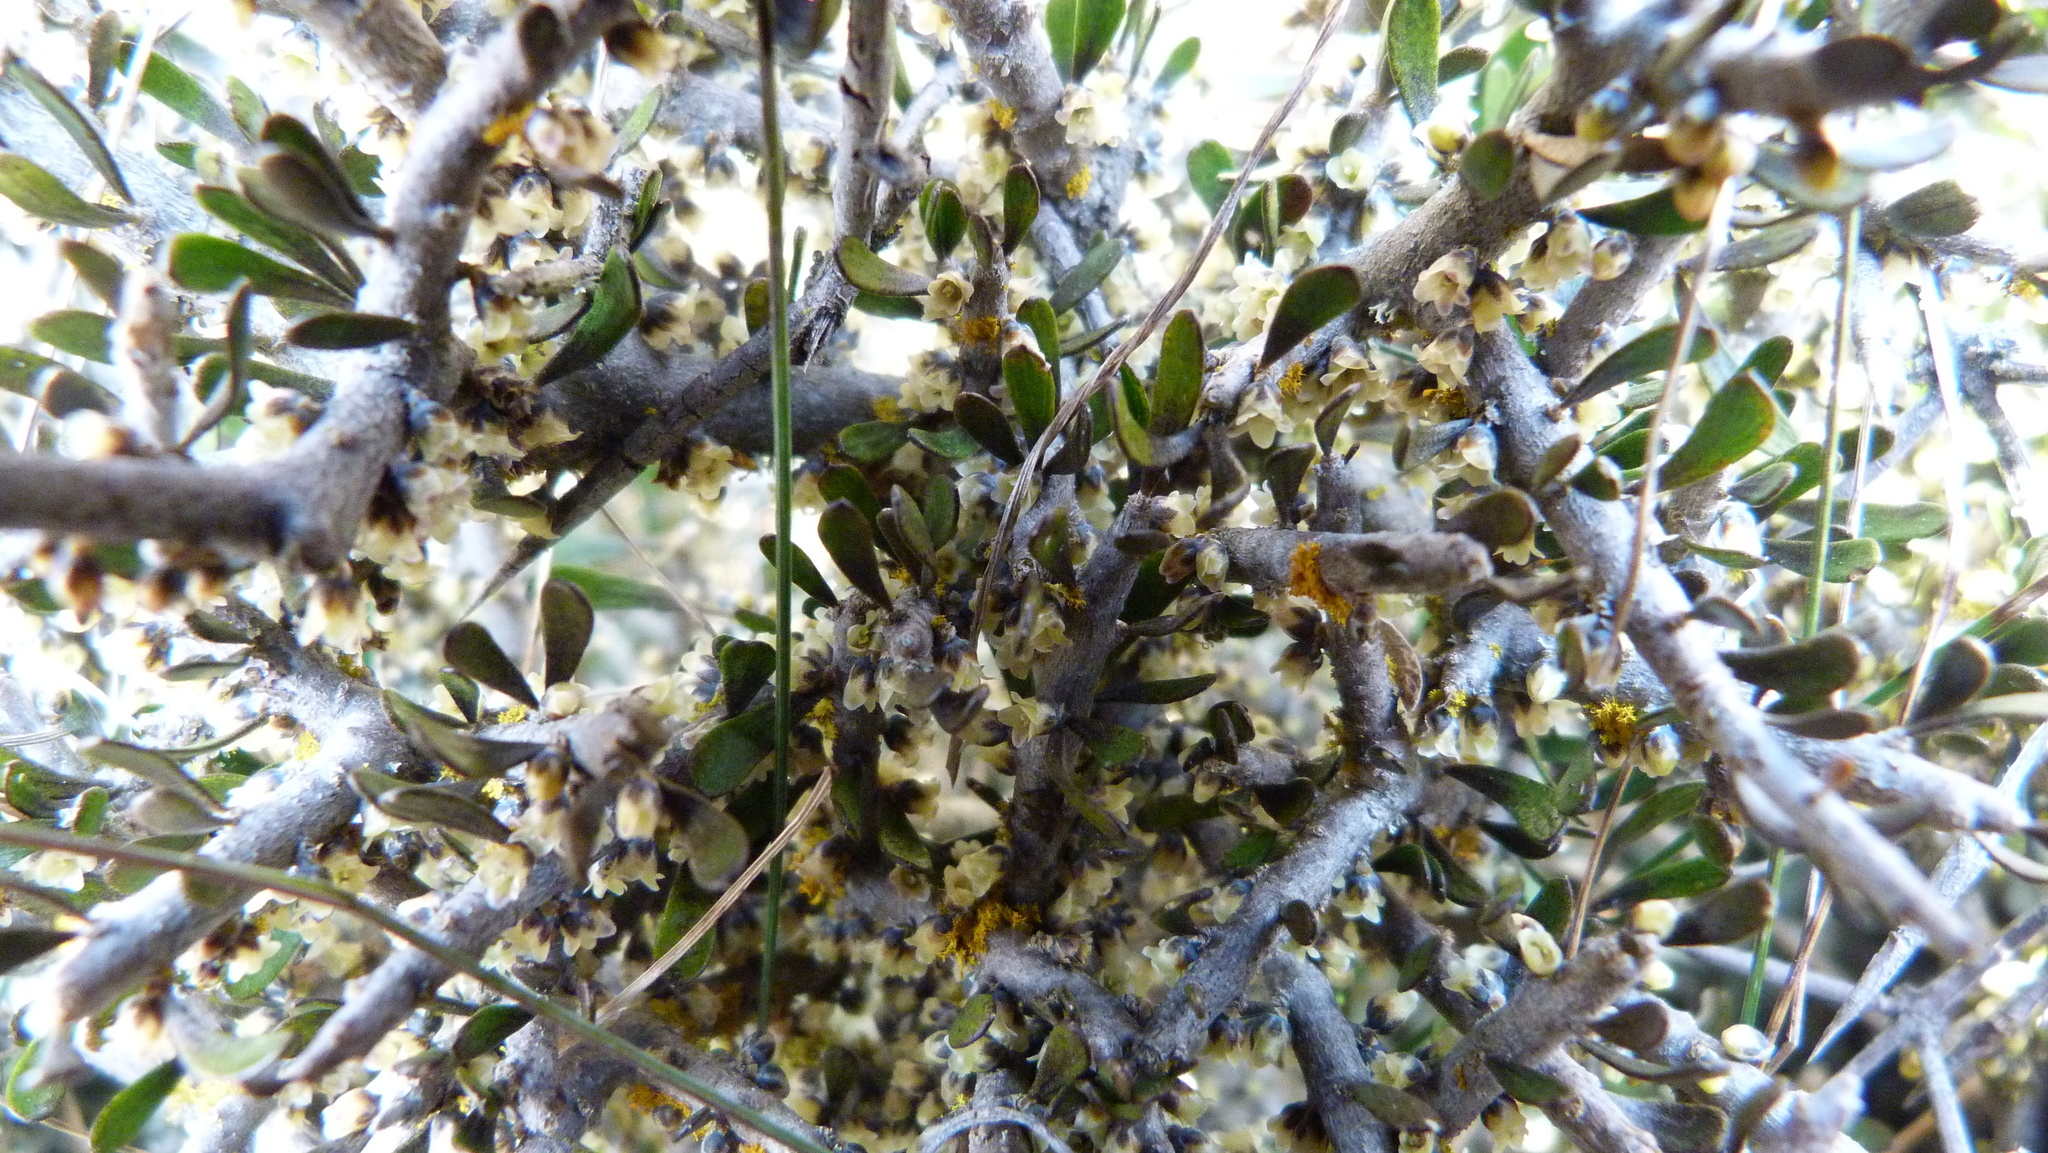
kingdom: Plantae
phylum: Tracheophyta
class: Magnoliopsida
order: Malpighiales
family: Violaceae
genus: Melicytus
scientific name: Melicytus alpinus
